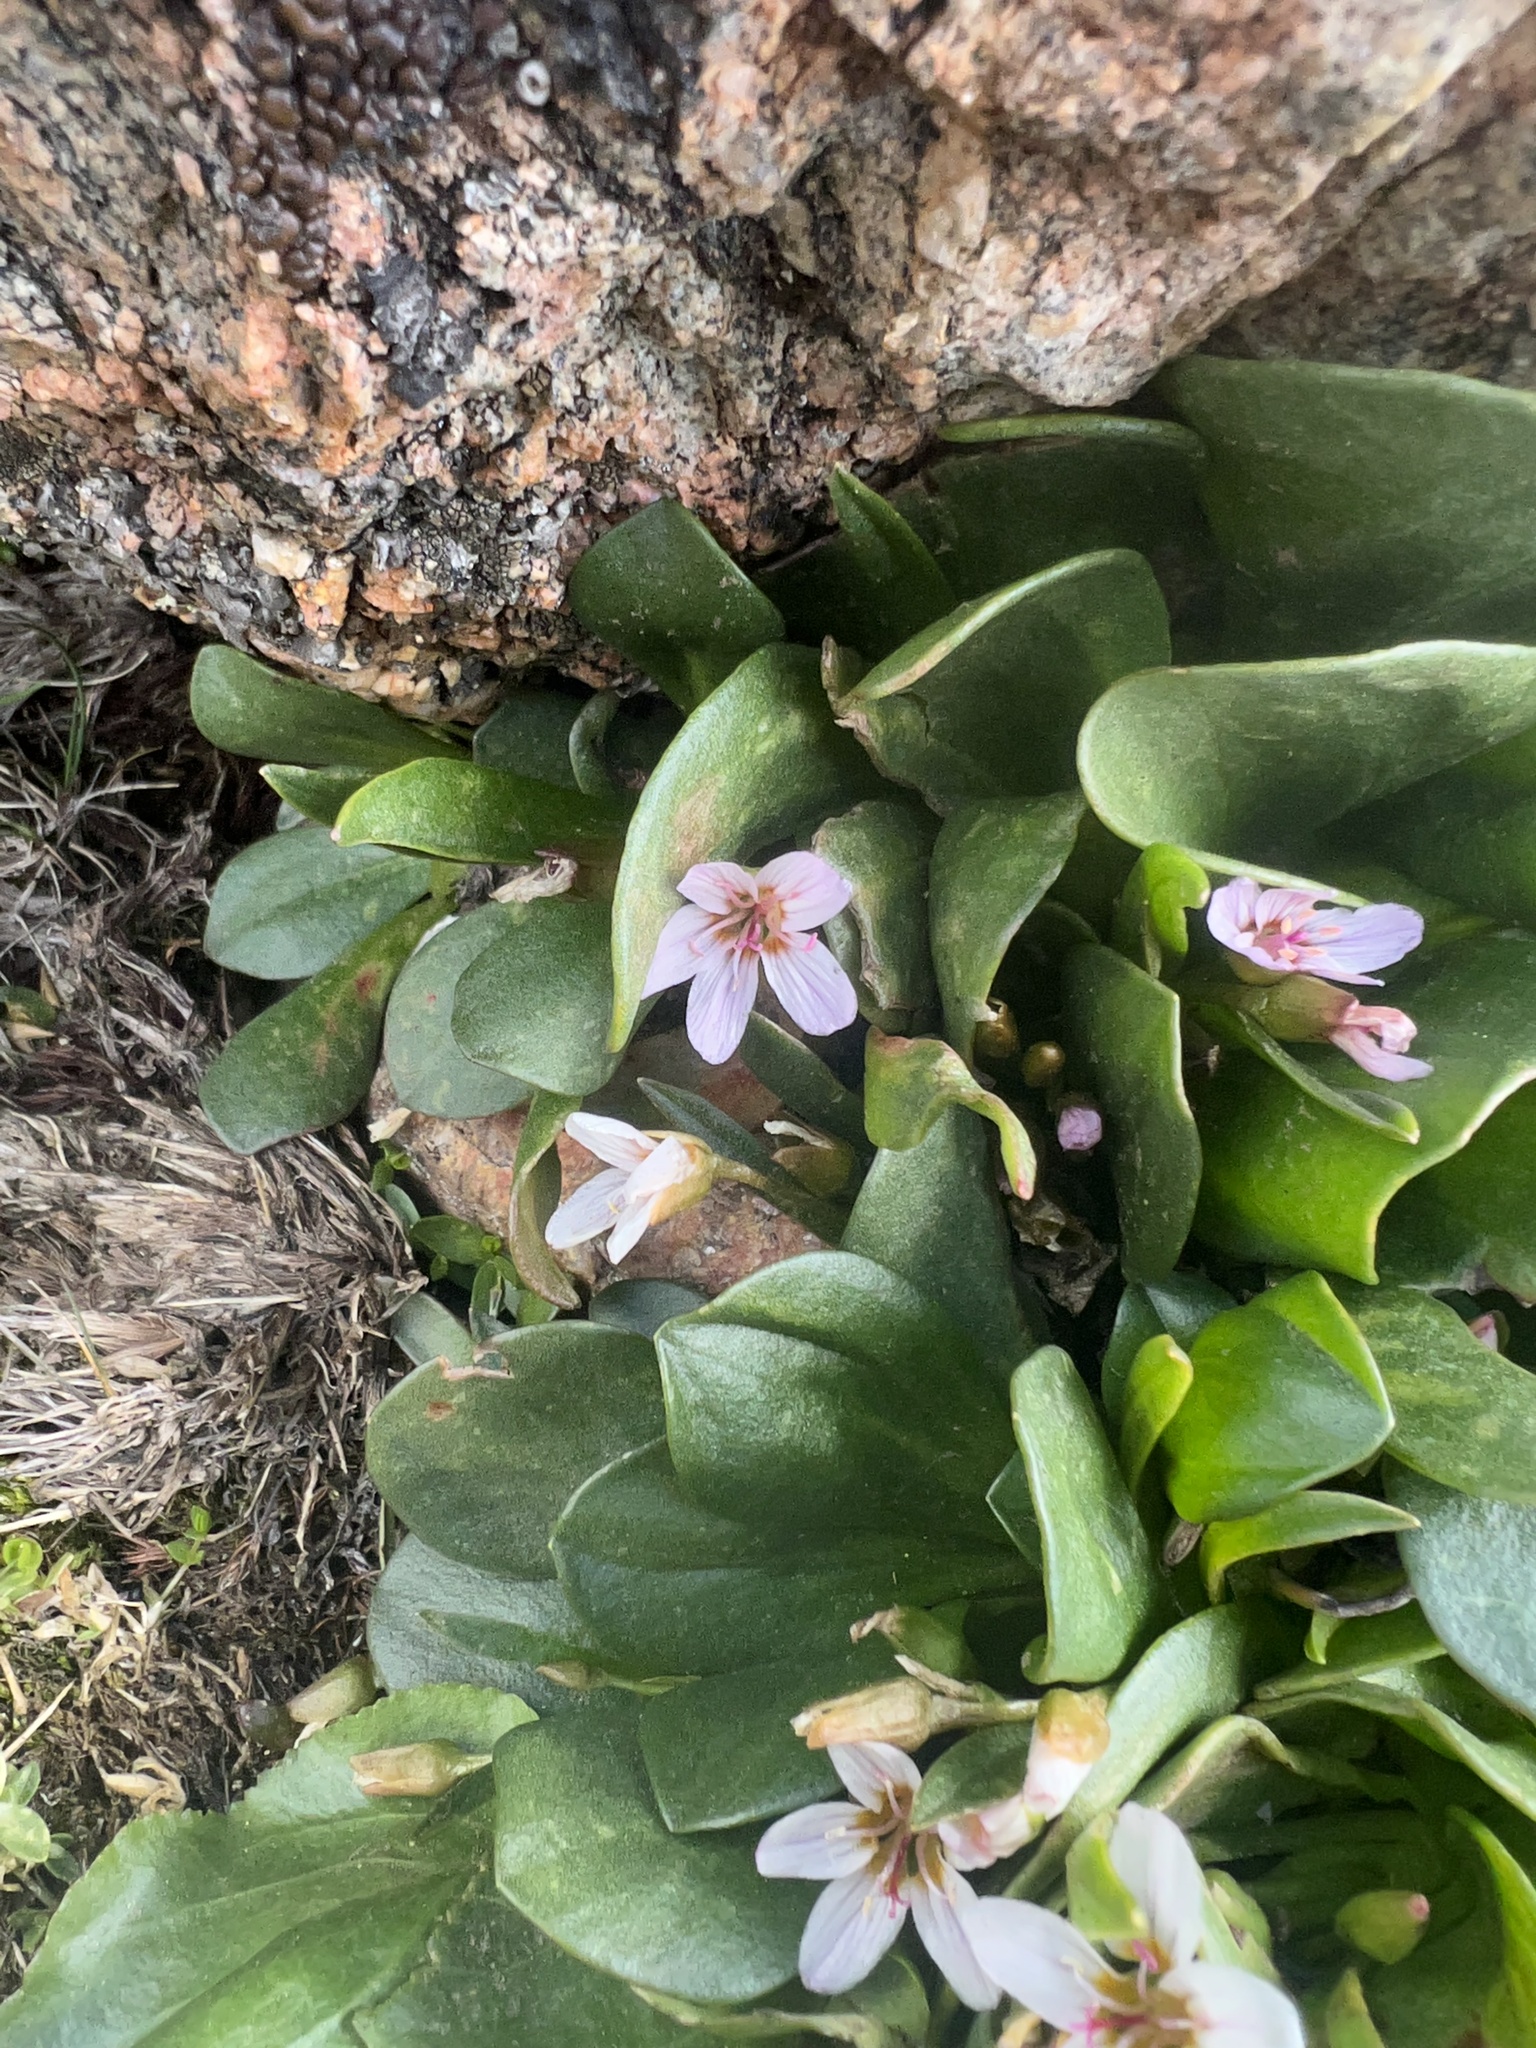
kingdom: Plantae
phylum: Tracheophyta
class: Magnoliopsida
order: Caryophyllales
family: Montiaceae
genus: Claytonia
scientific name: Claytonia megarhiza
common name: Alpine spring beauty
